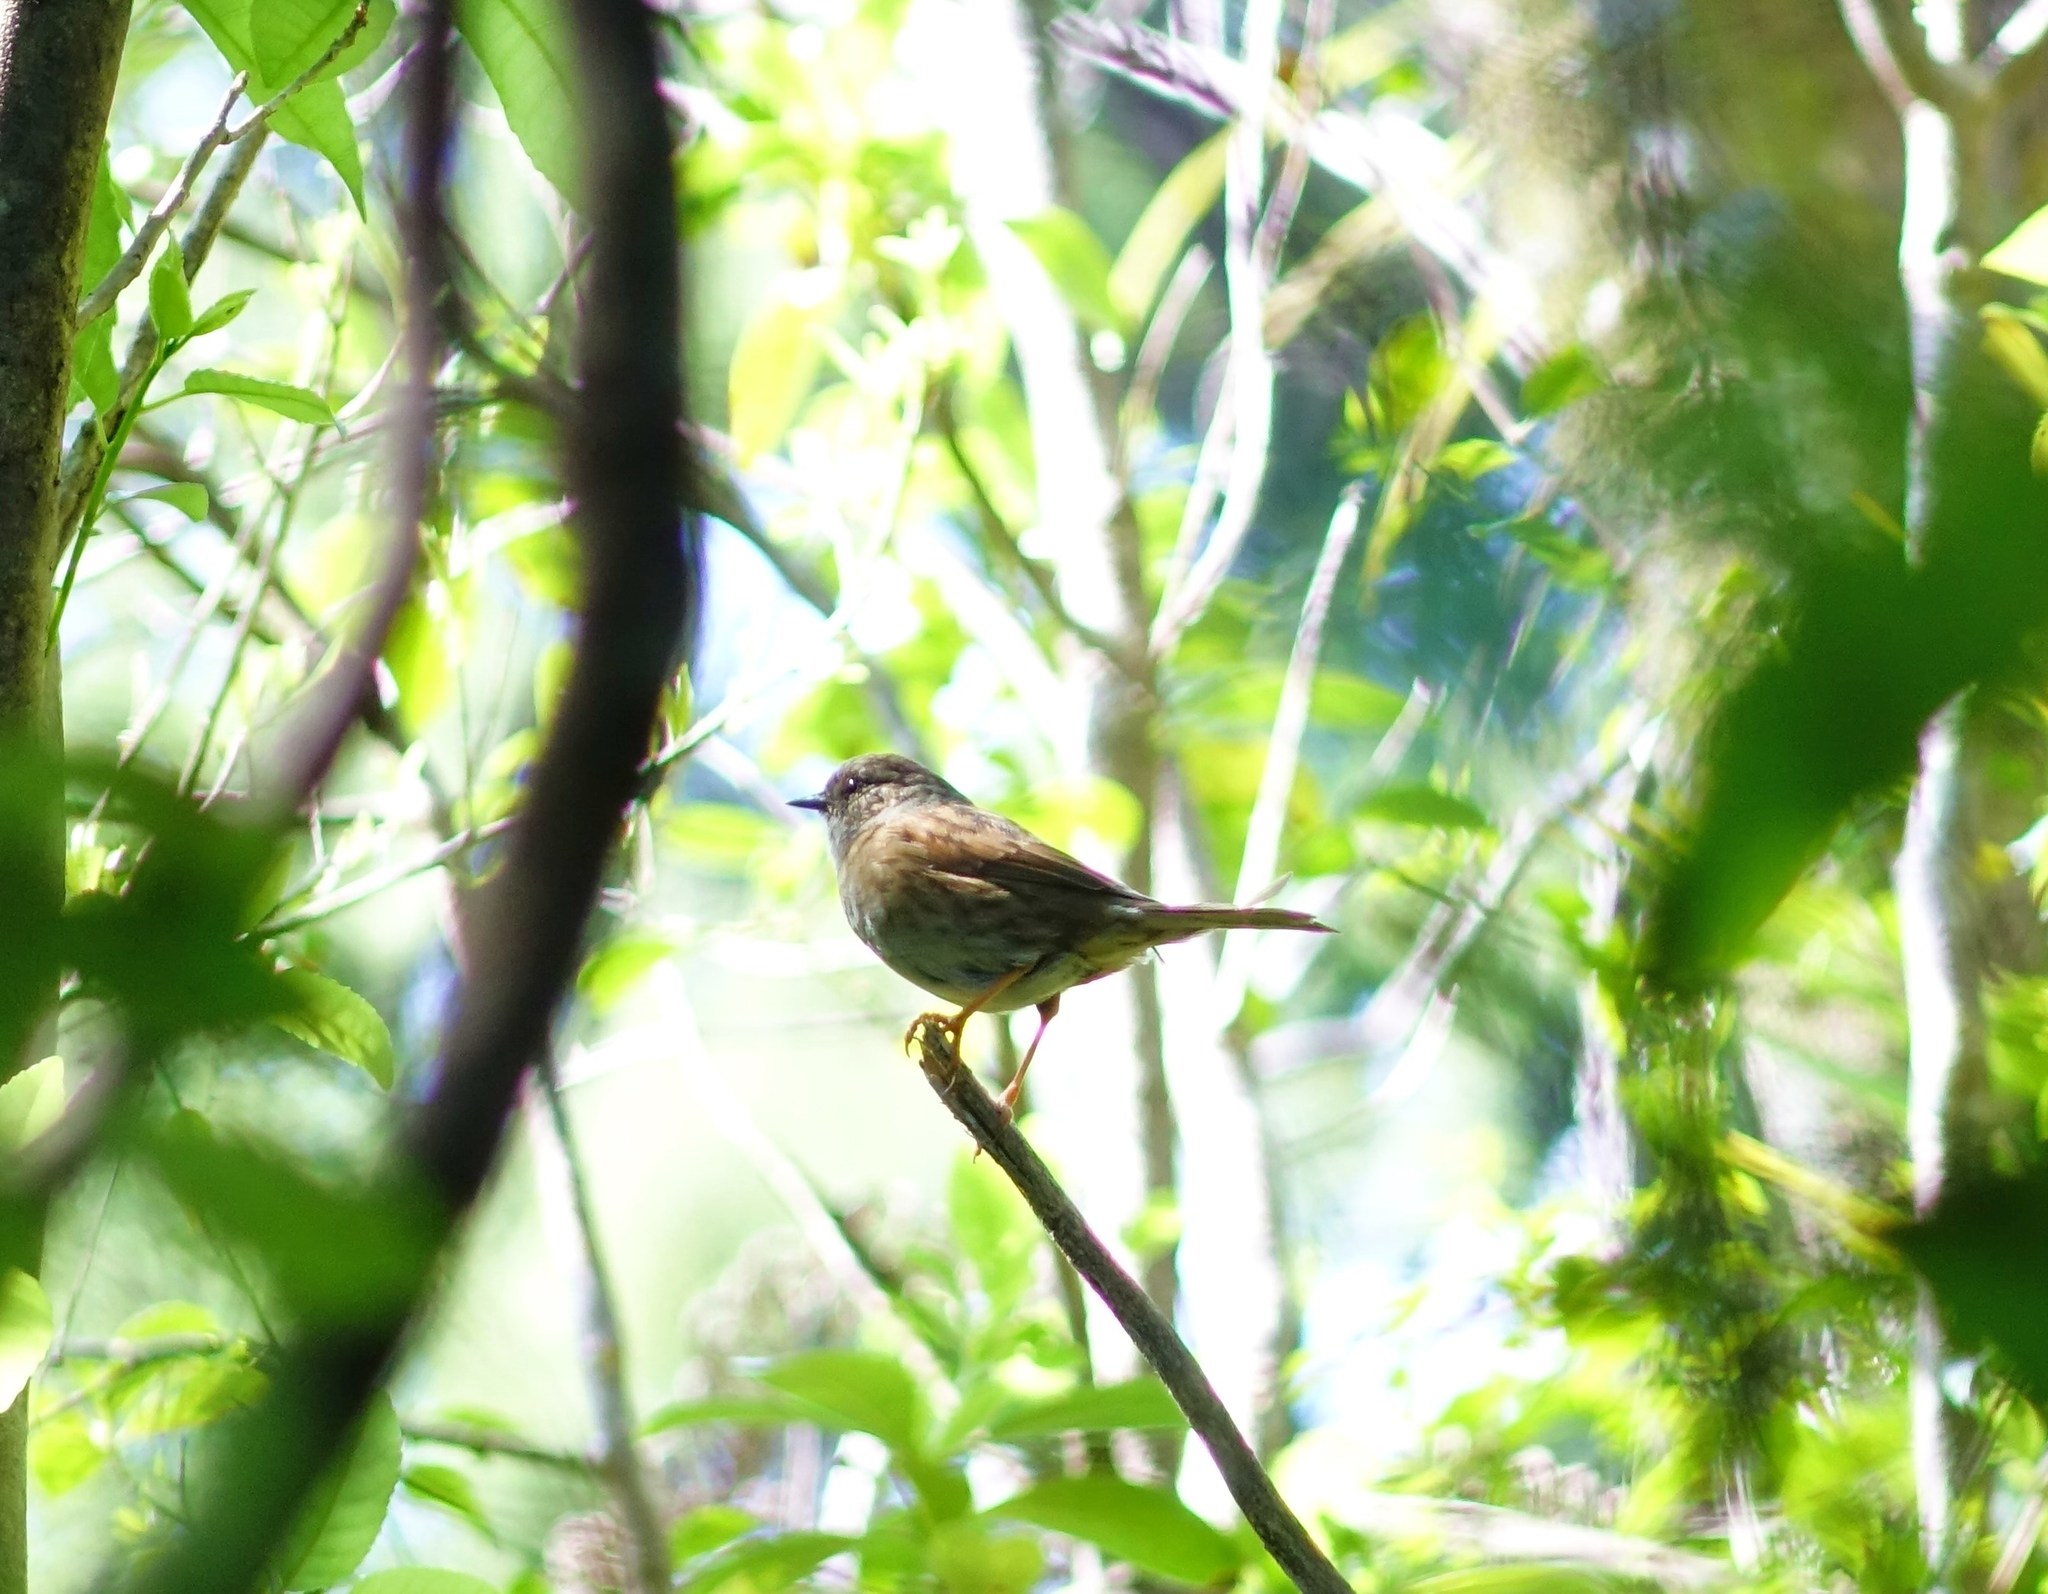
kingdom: Animalia
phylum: Chordata
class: Aves
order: Passeriformes
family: Prunellidae
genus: Prunella
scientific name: Prunella modularis
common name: Dunnock
